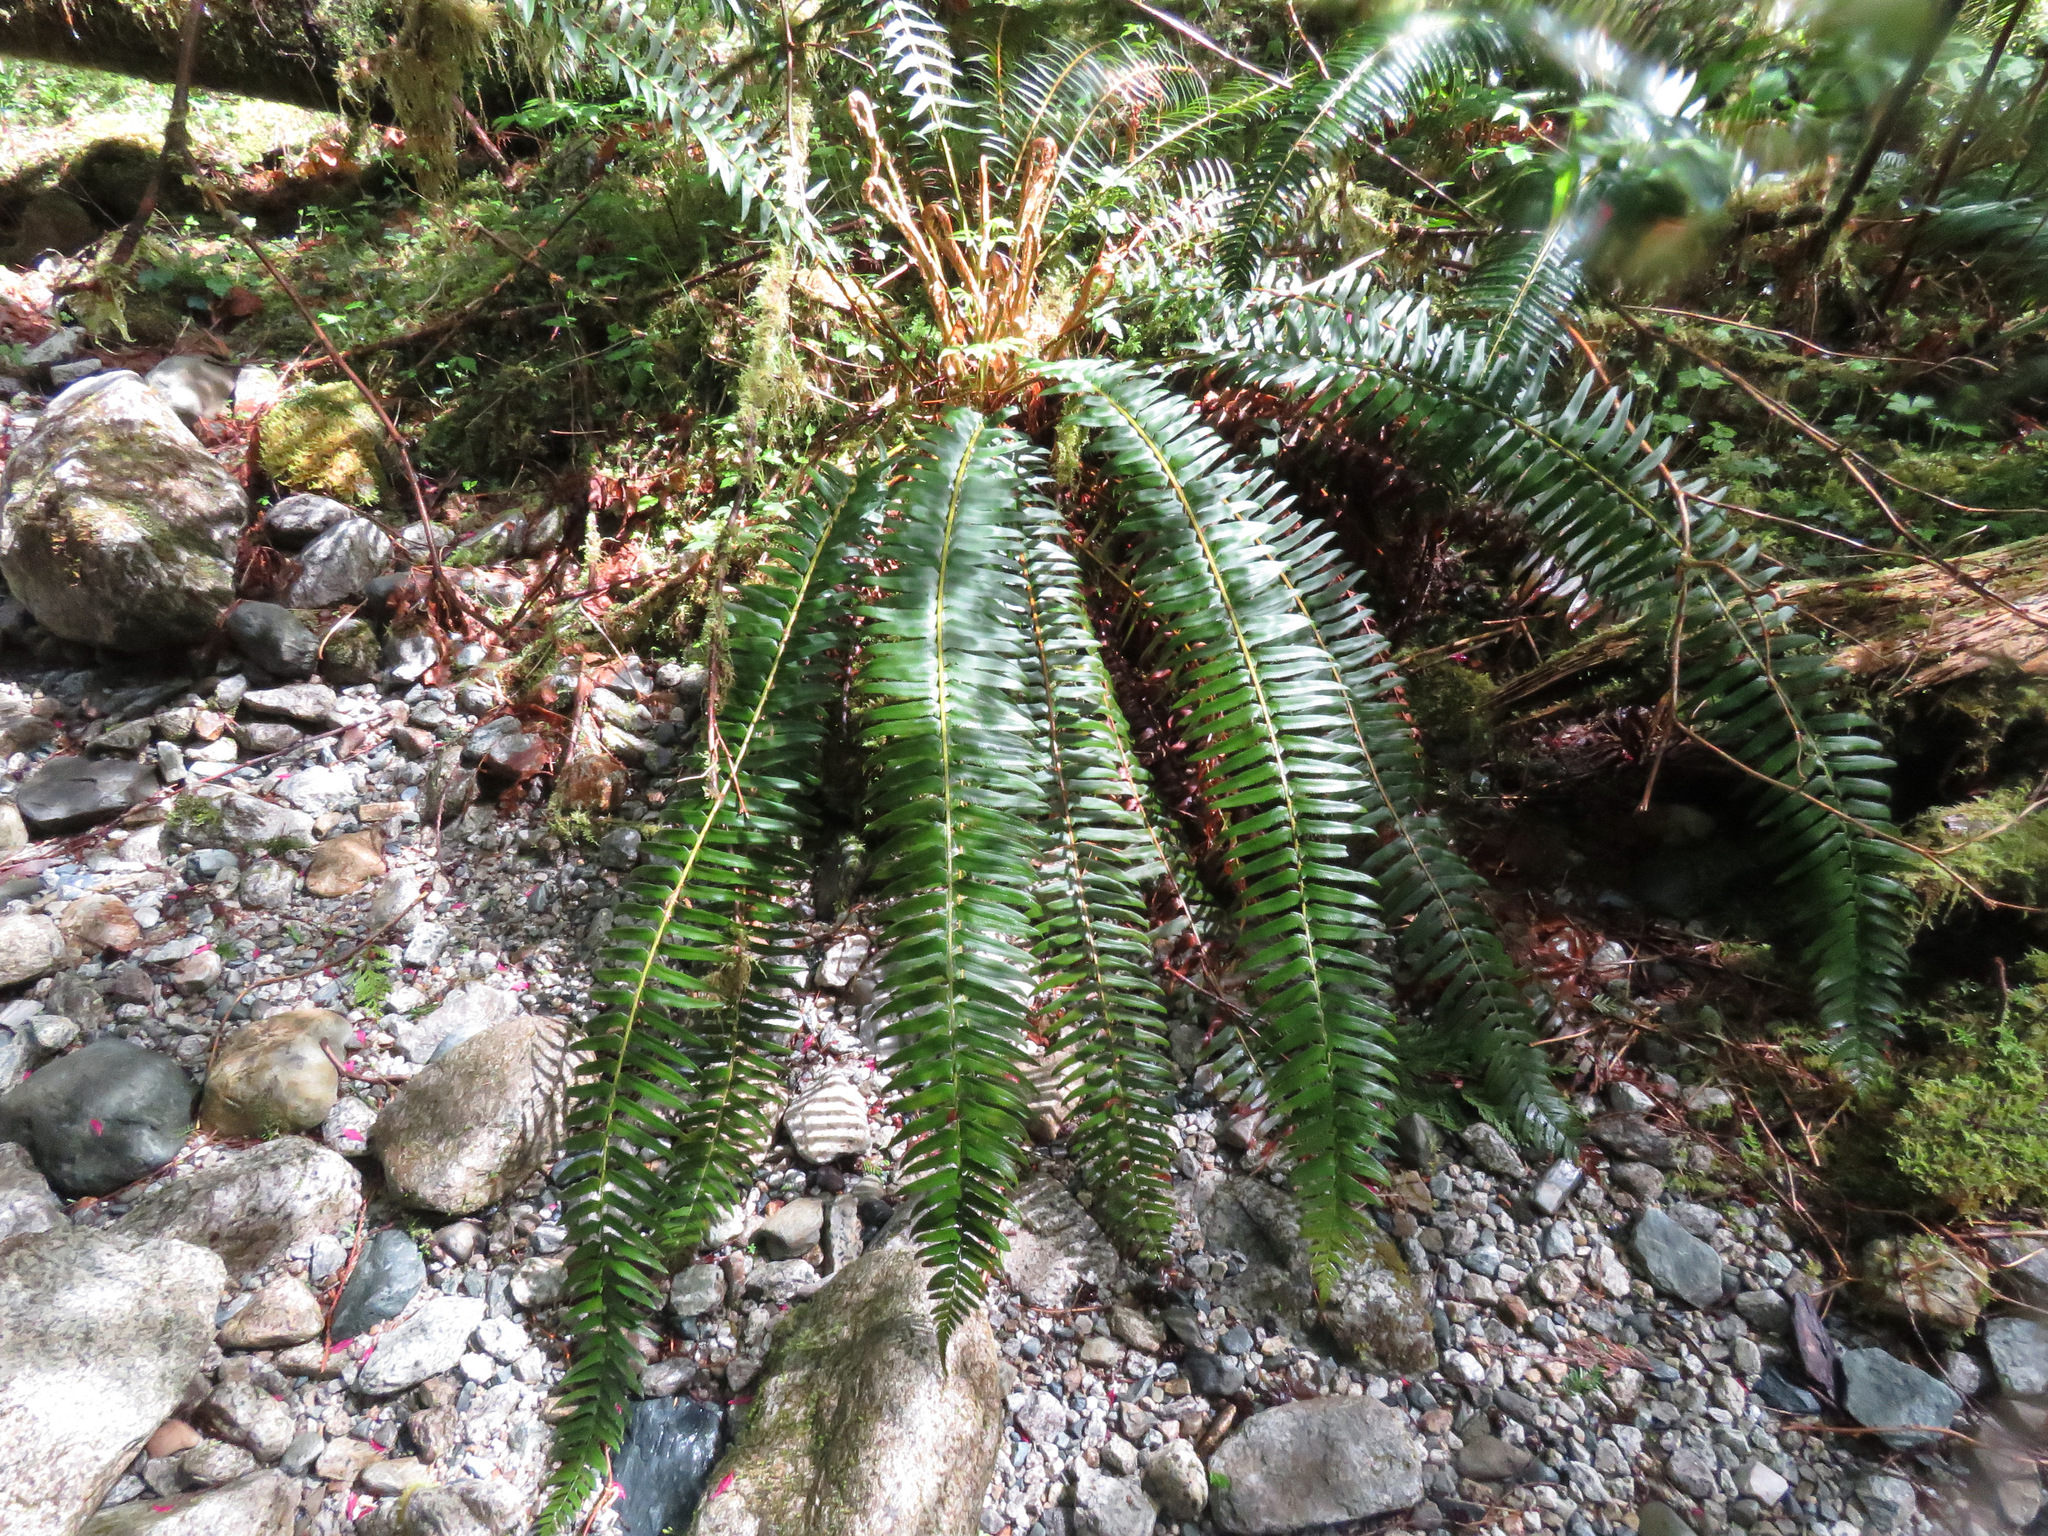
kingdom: Plantae
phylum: Tracheophyta
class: Polypodiopsida
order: Polypodiales
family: Dryopteridaceae
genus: Polystichum
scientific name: Polystichum munitum
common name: Western sword-fern
